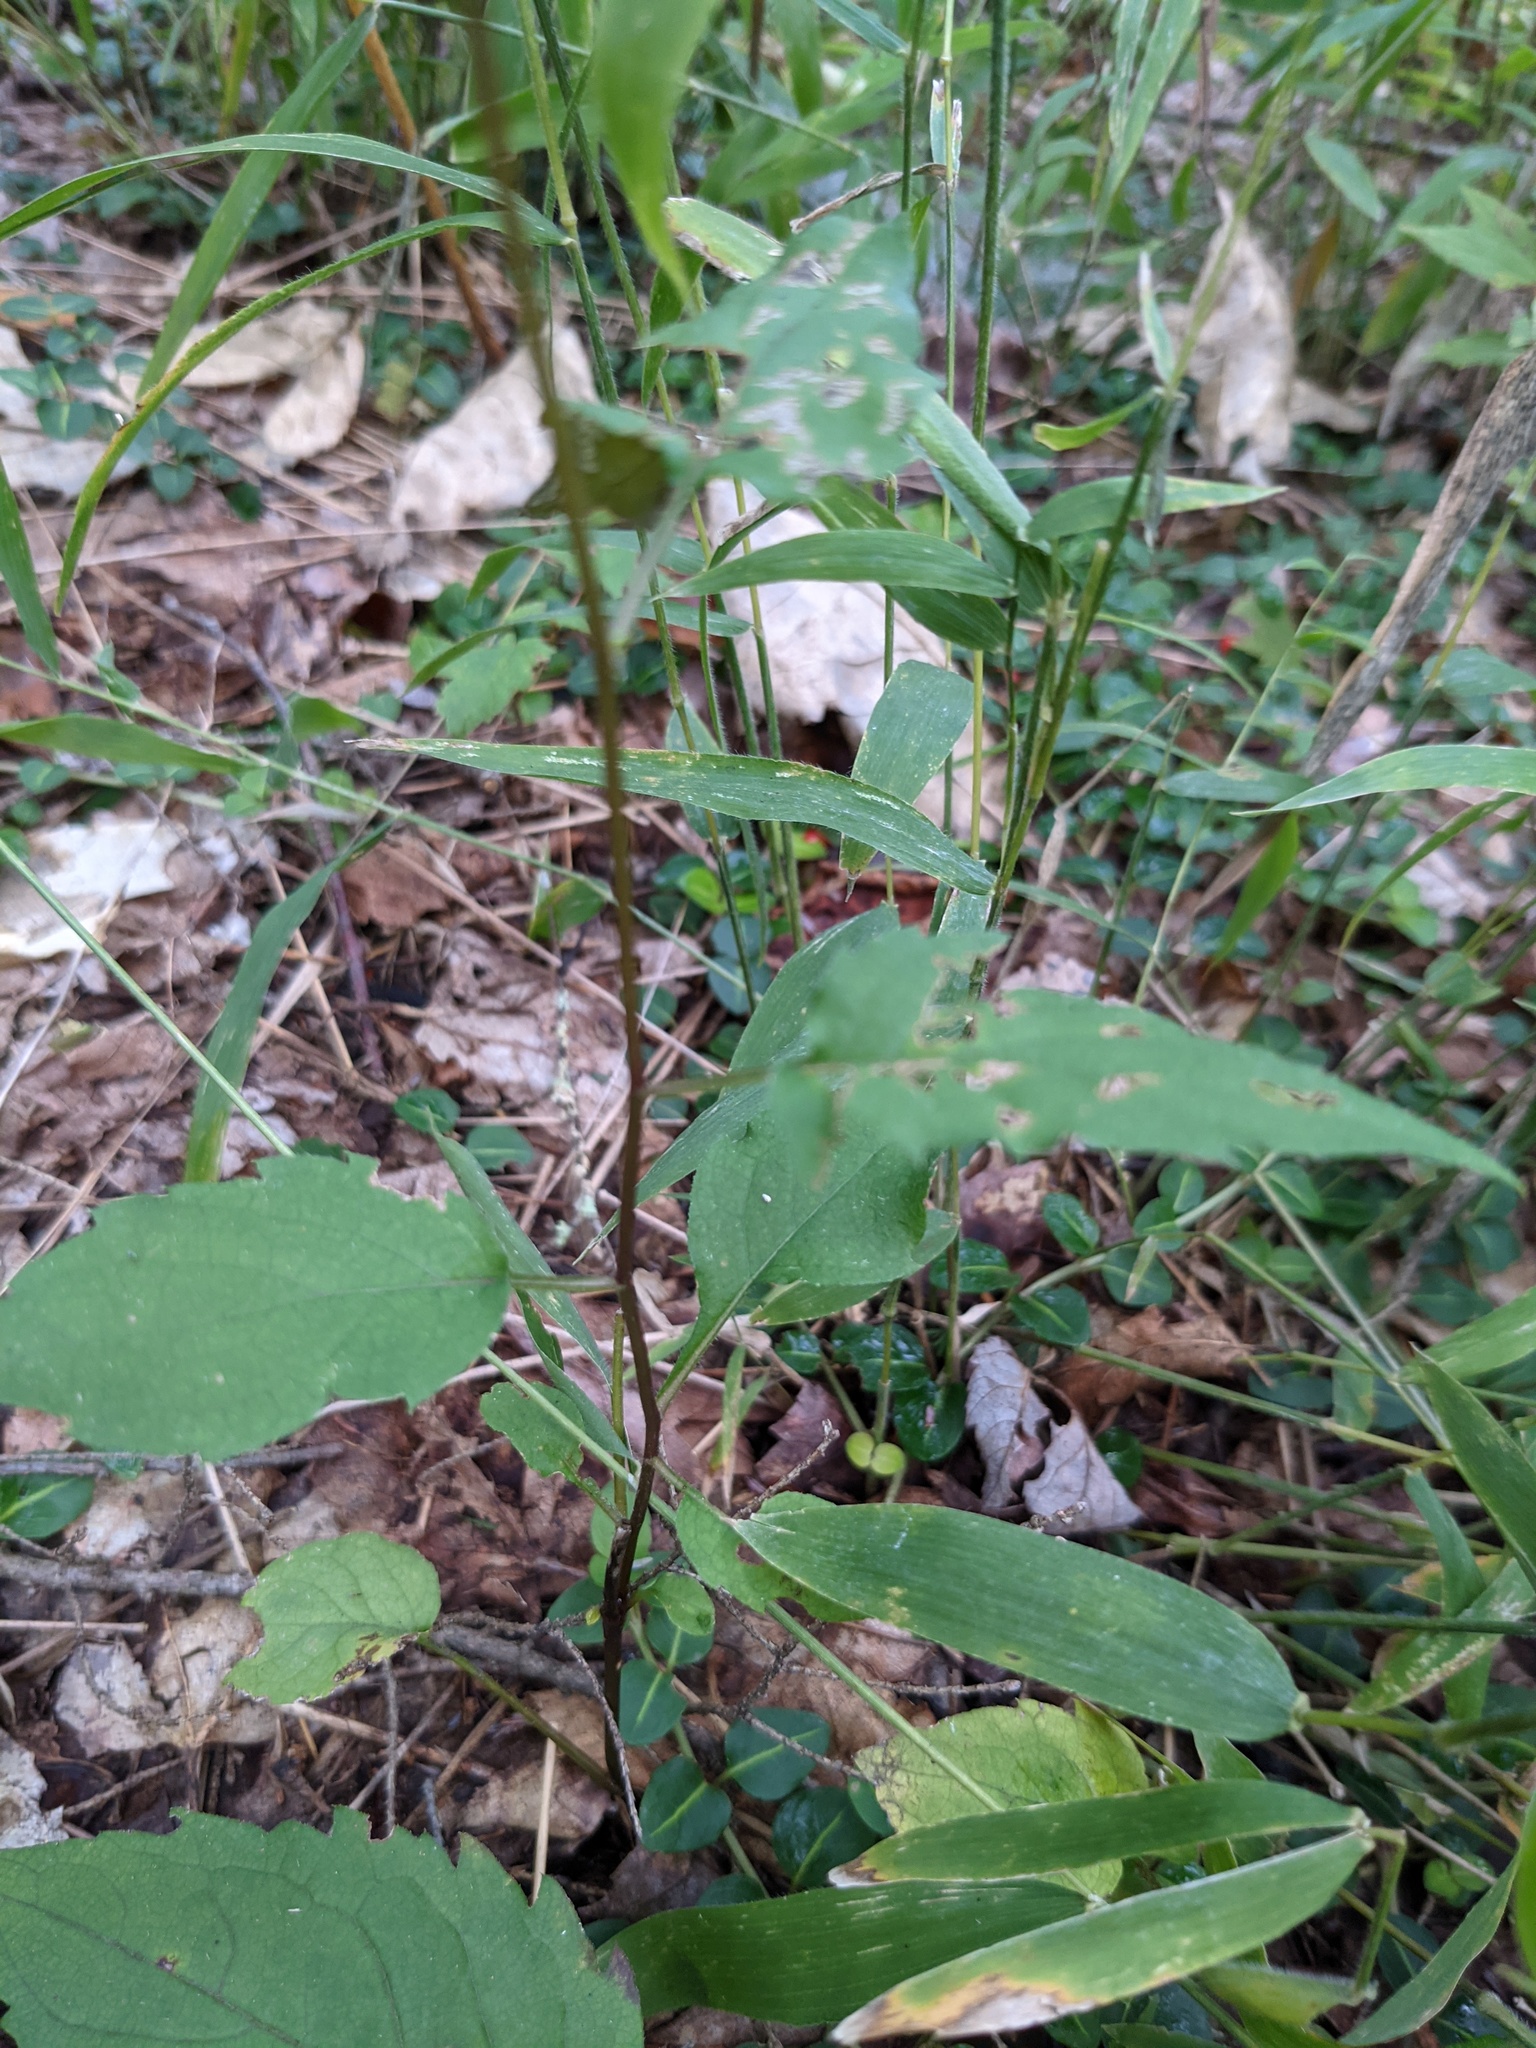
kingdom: Plantae
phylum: Tracheophyta
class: Magnoliopsida
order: Asterales
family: Asteraceae
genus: Eurybia
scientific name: Eurybia divaricata
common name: White wood aster
